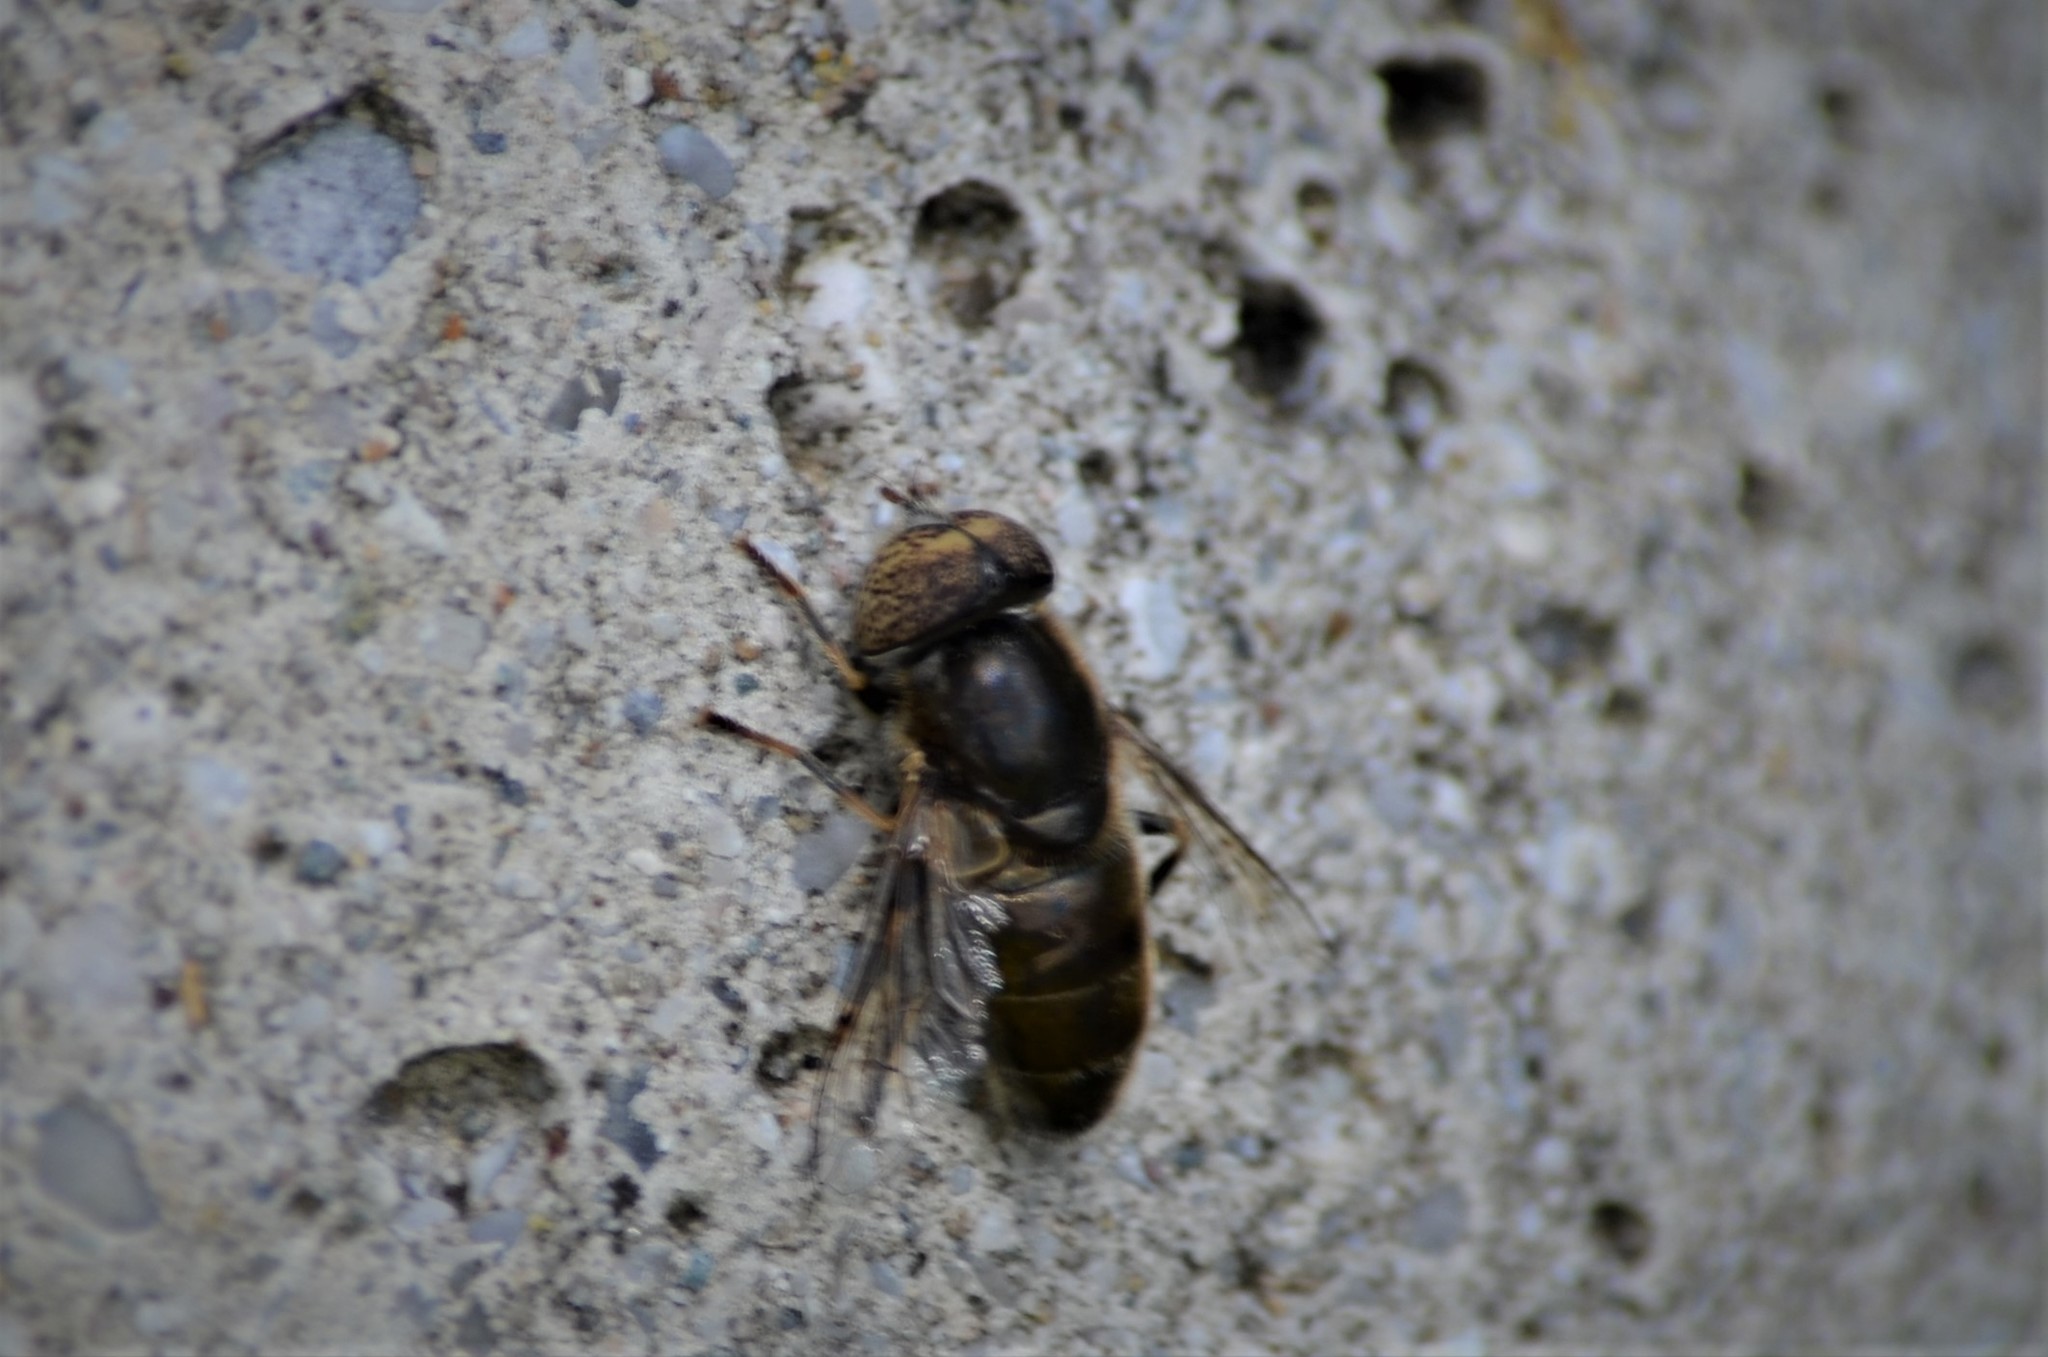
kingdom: Animalia
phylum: Arthropoda
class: Insecta
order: Diptera
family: Syrphidae
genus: Eristalinus
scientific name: Eristalinus aeneus
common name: Syrphid fly
